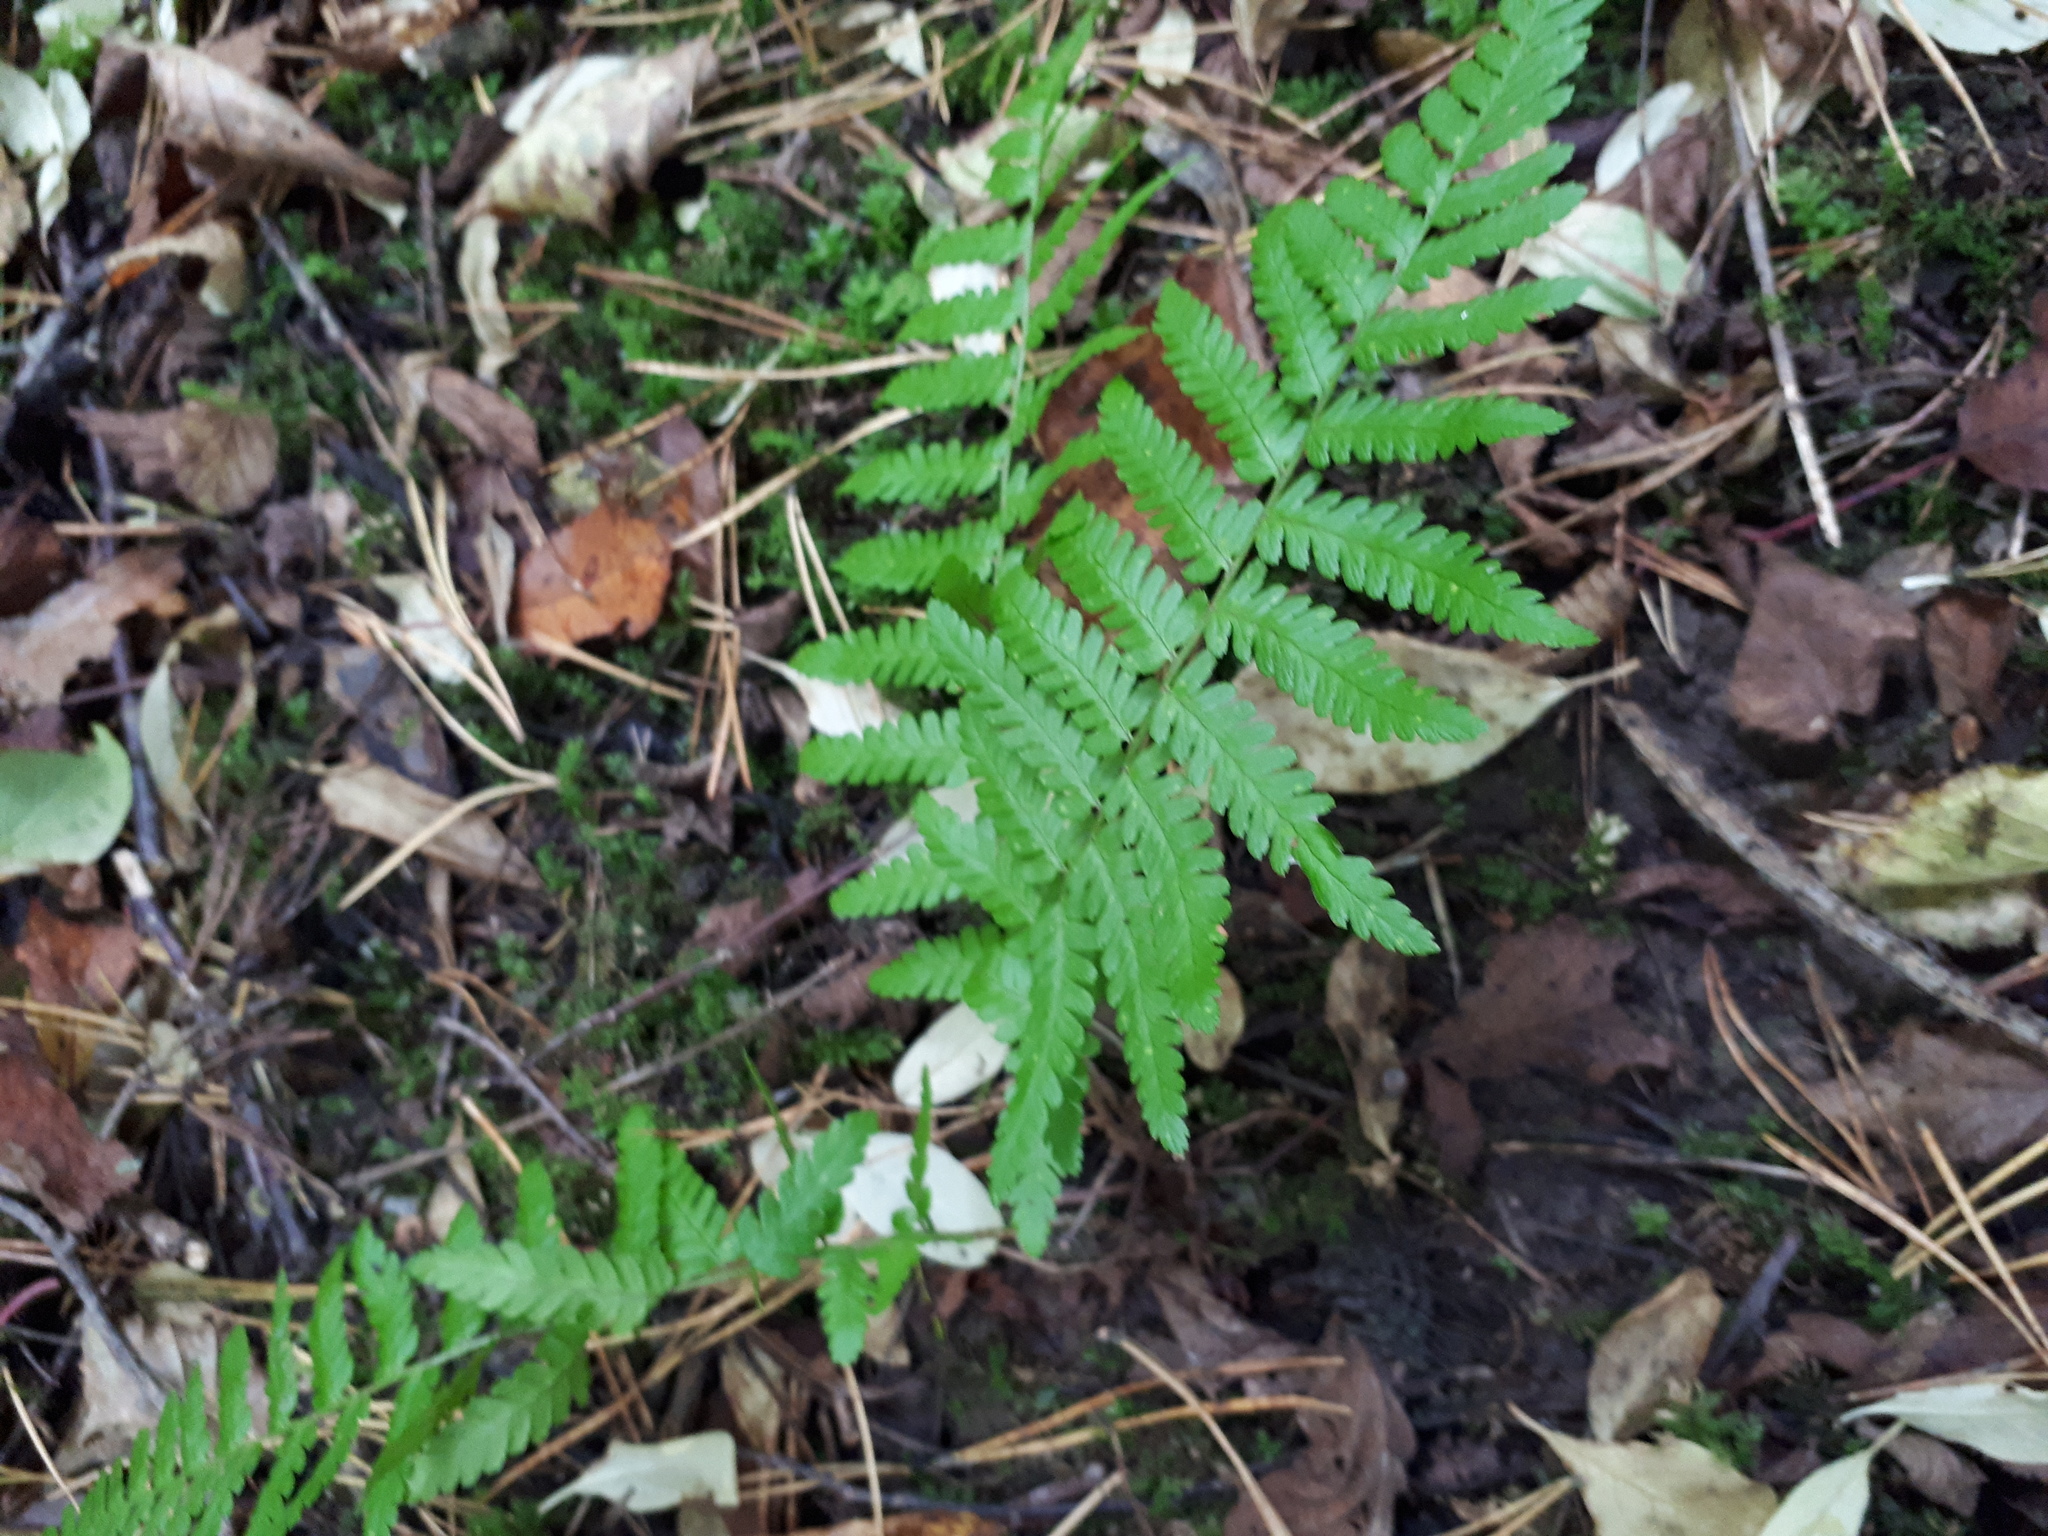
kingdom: Plantae
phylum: Tracheophyta
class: Polypodiopsida
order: Polypodiales
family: Dryopteridaceae
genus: Dryopteris
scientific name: Dryopteris filix-mas
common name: Male fern
